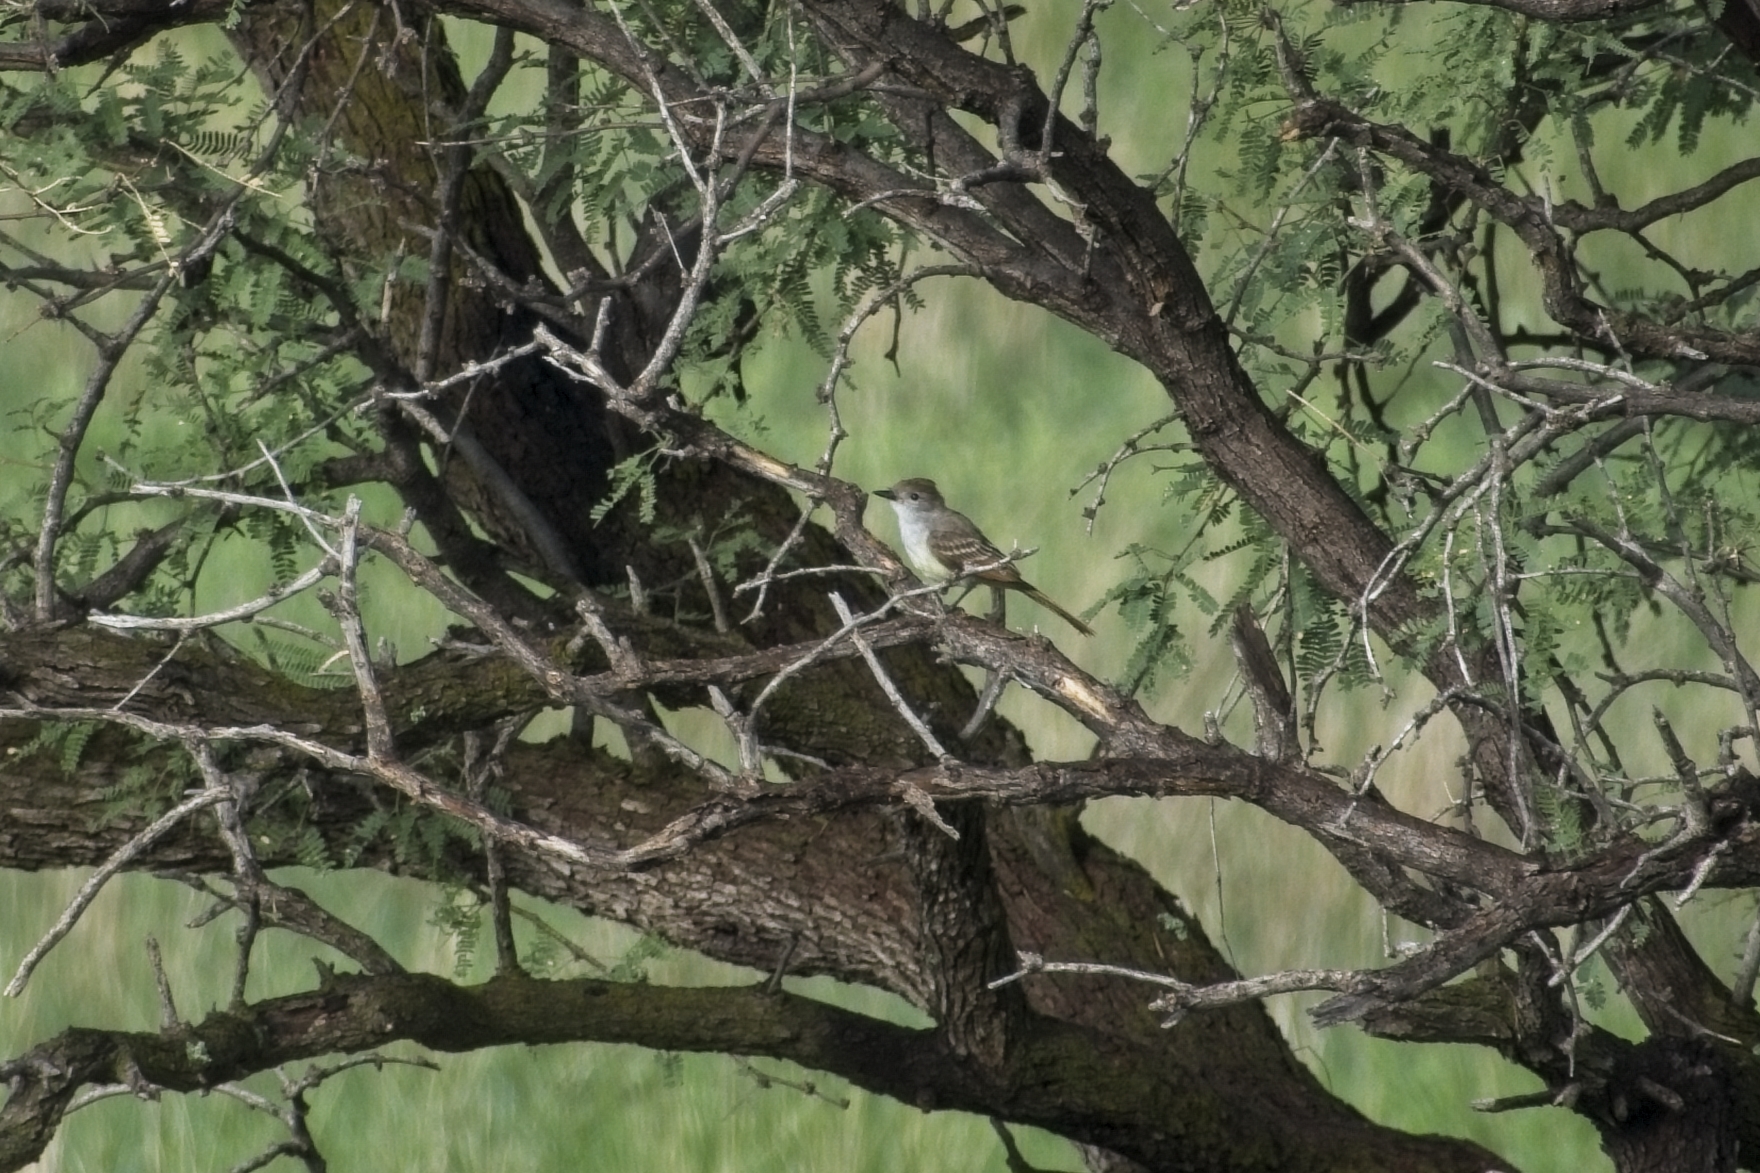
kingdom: Animalia
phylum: Chordata
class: Aves
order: Passeriformes
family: Tyrannidae
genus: Myiarchus
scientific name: Myiarchus cinerascens
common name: Ash-throated flycatcher
